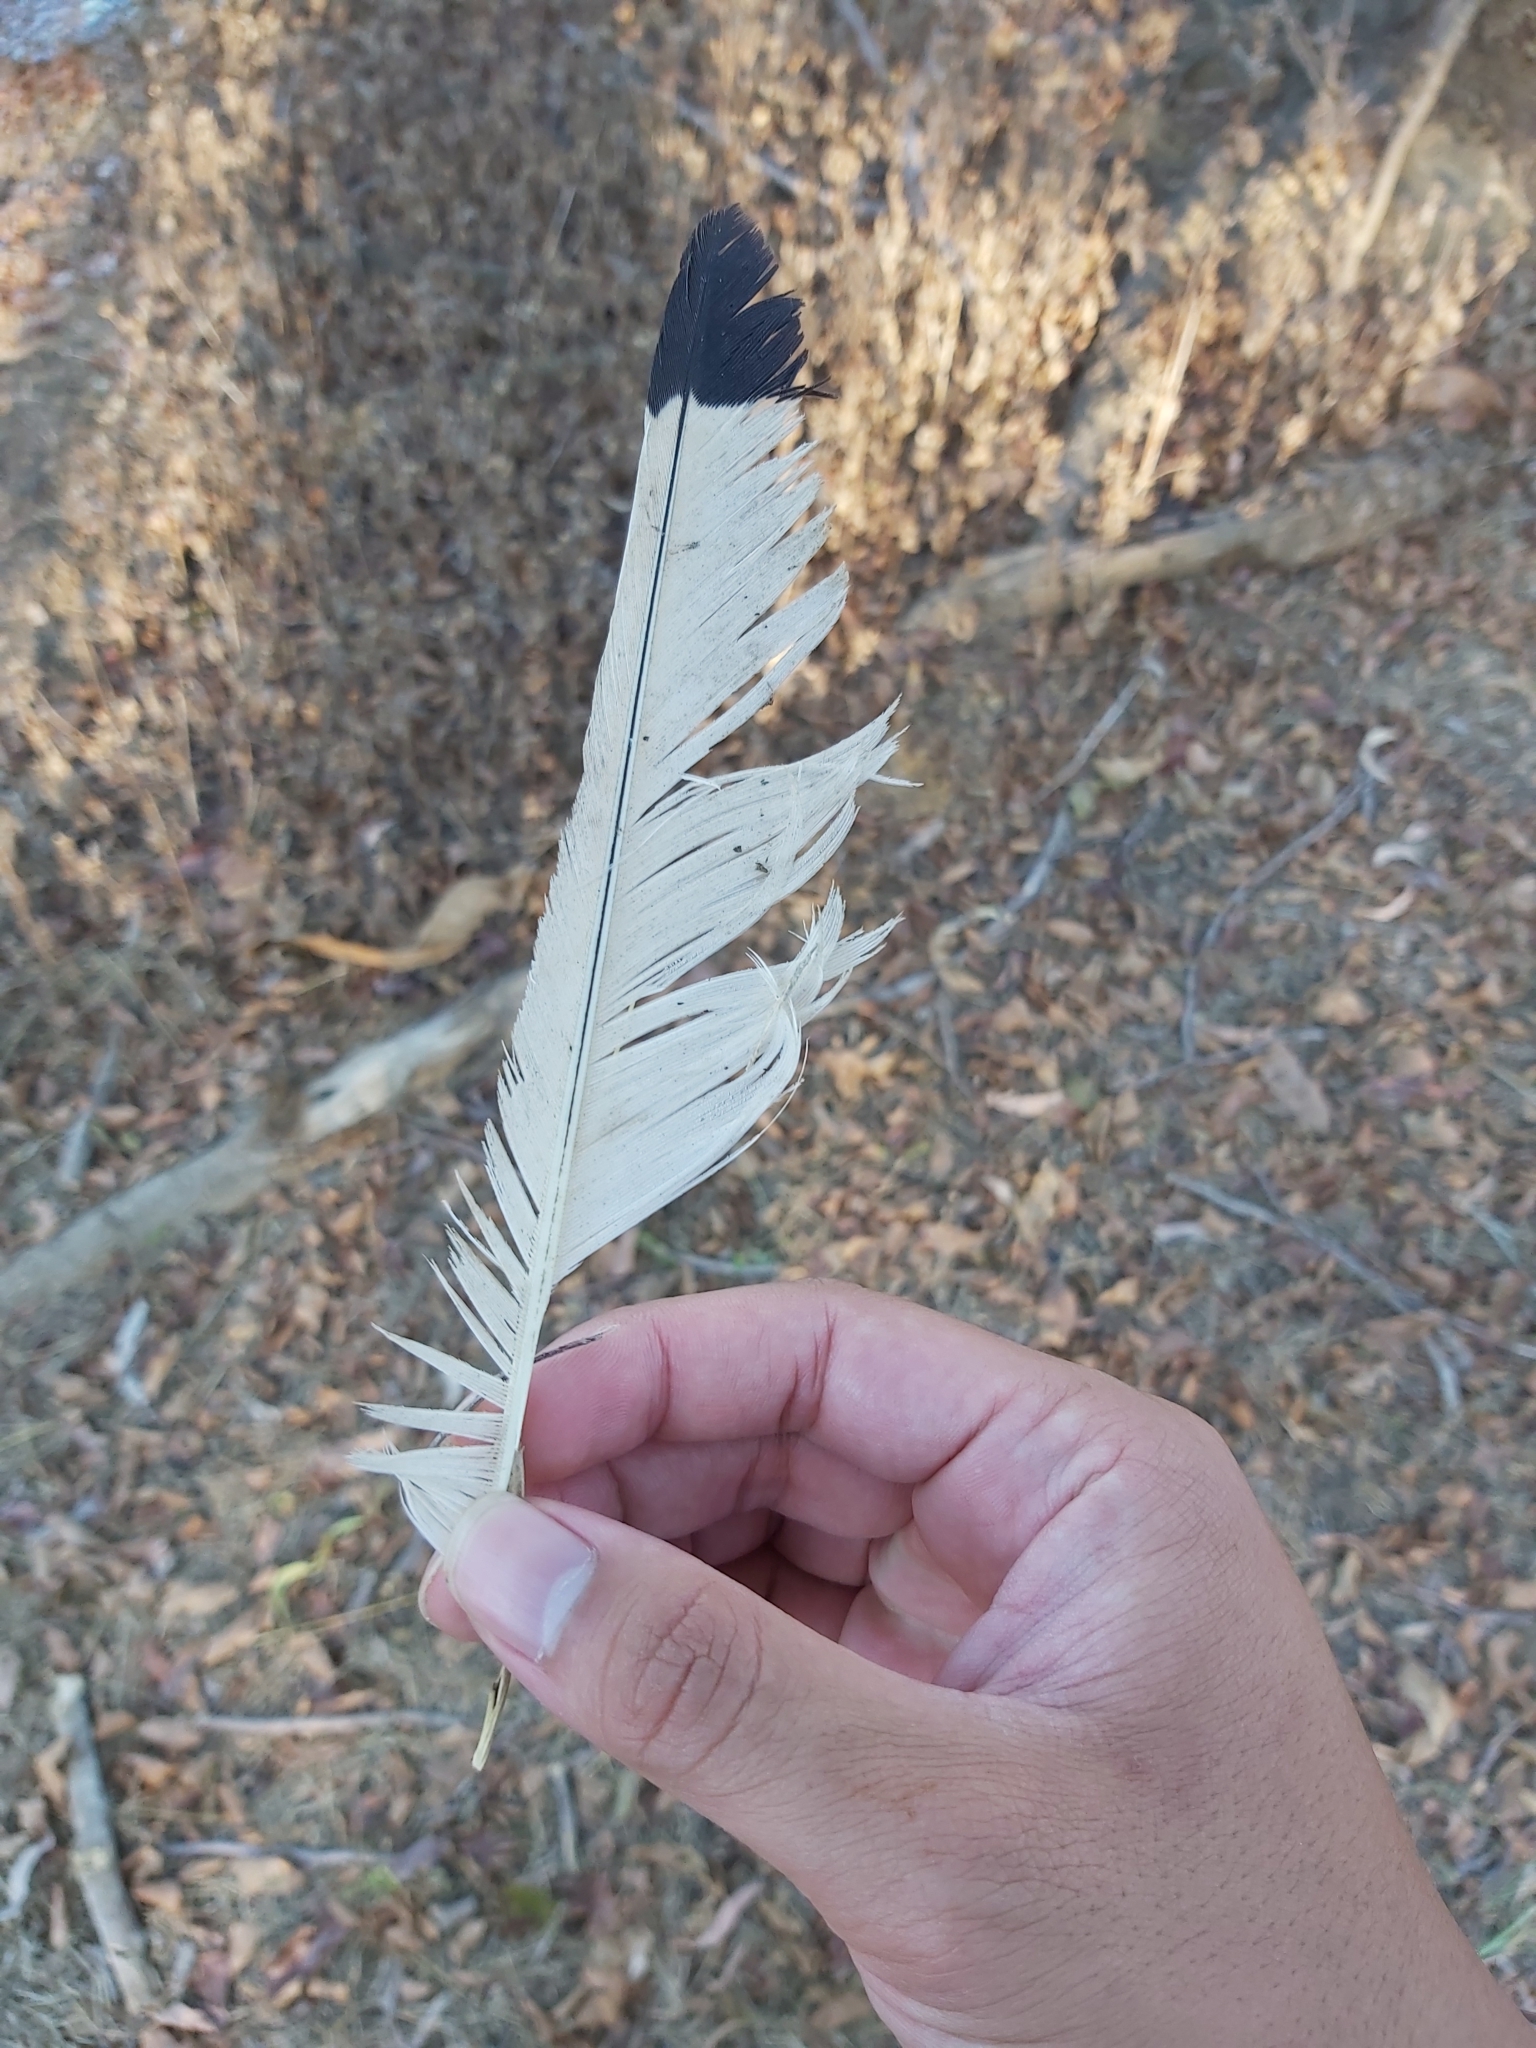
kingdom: Animalia
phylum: Chordata
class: Aves
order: Pelecaniformes
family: Threskiornithidae
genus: Threskiornis
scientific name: Threskiornis molucca
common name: Australian white ibis
